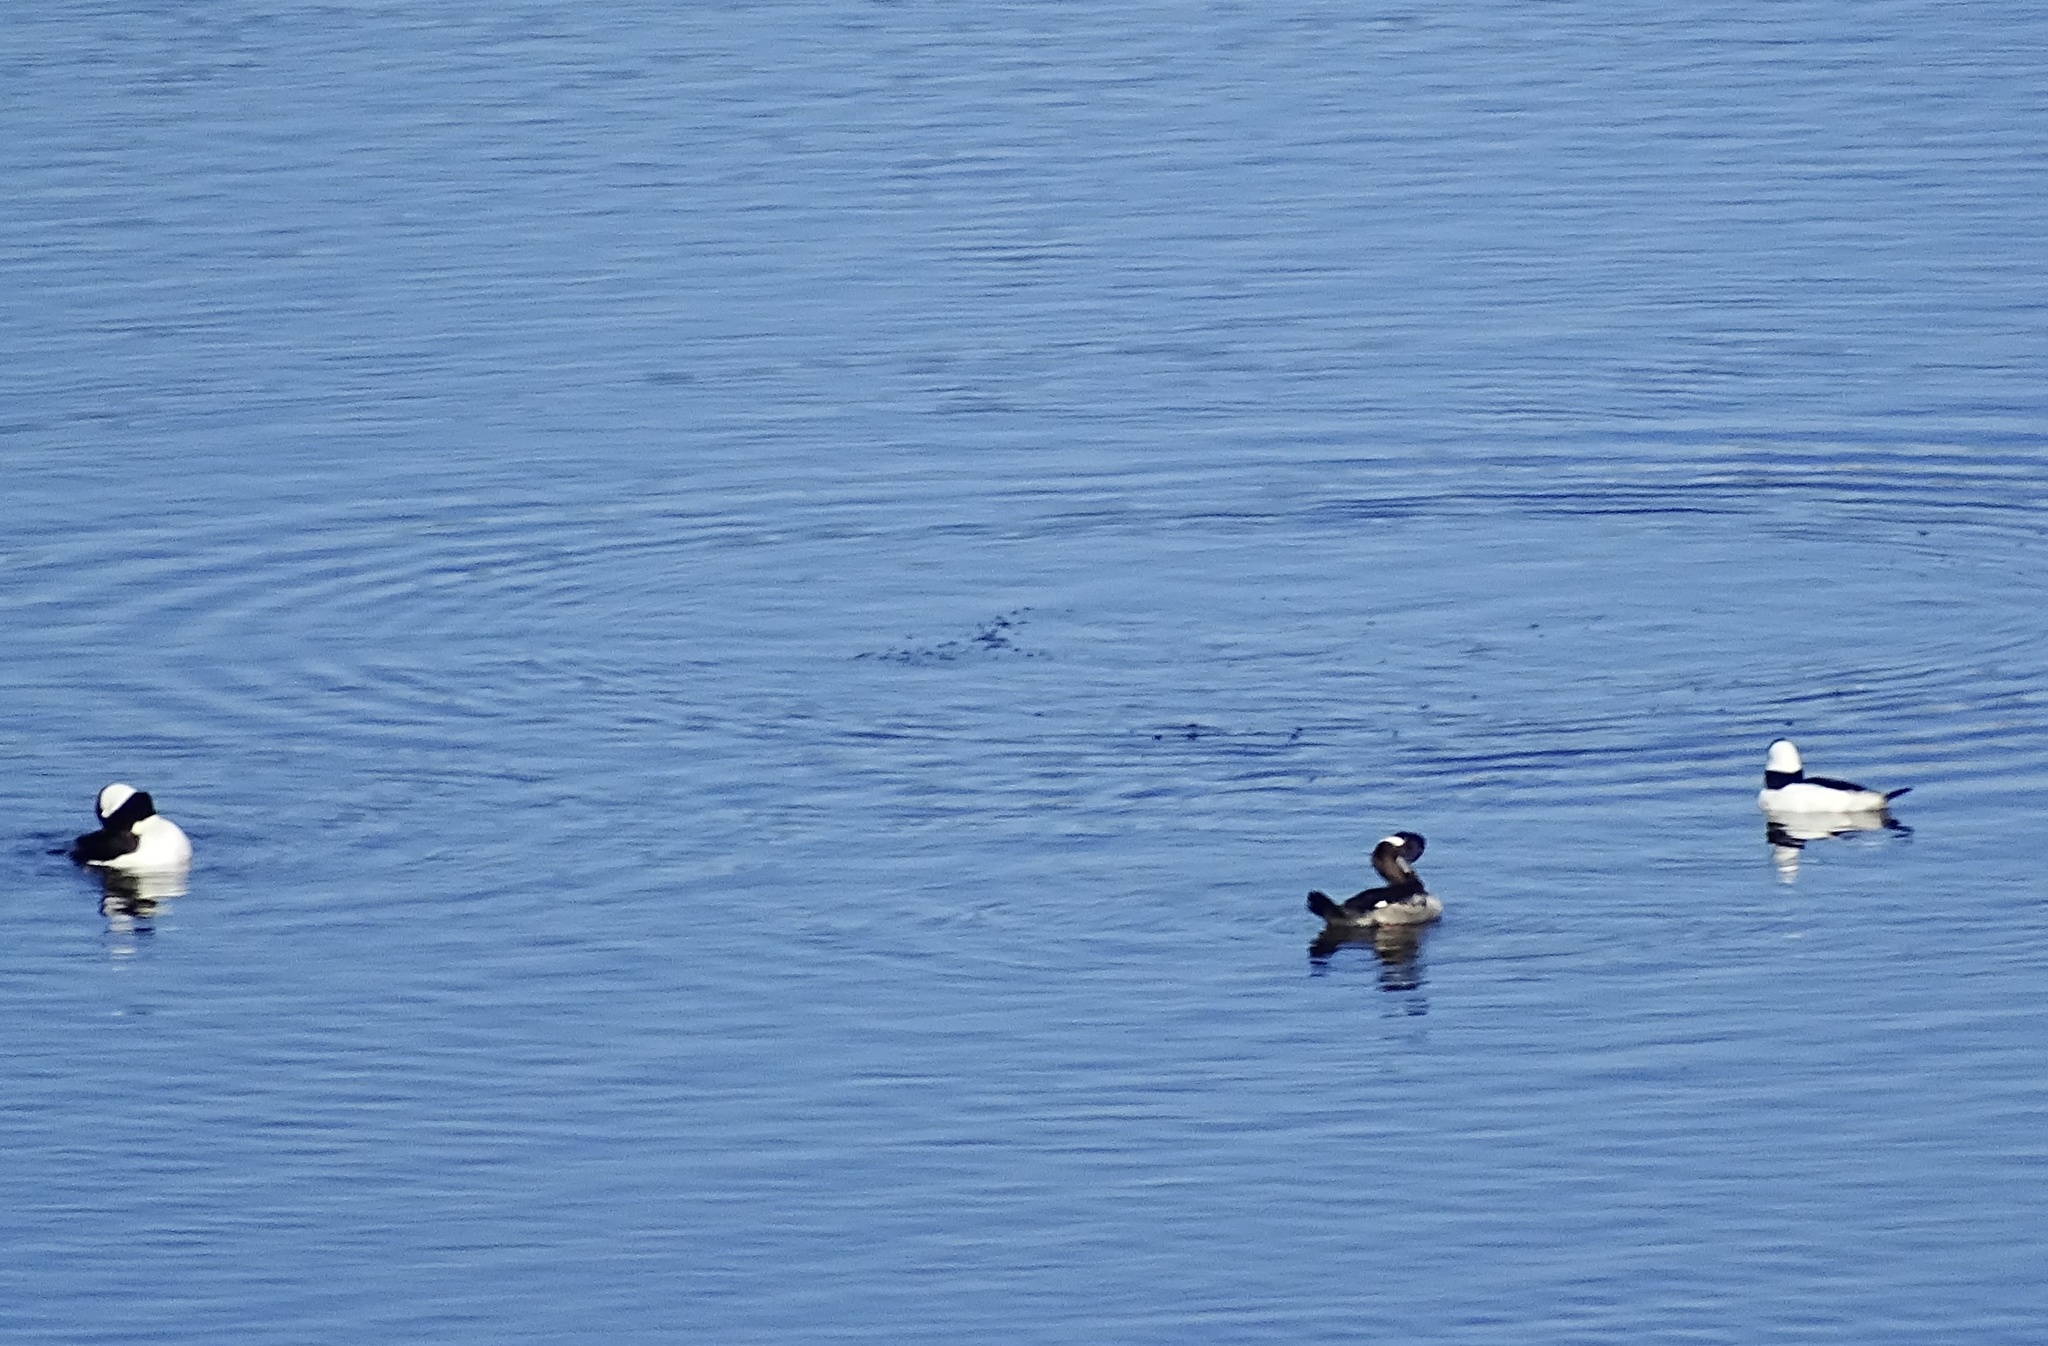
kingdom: Animalia
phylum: Chordata
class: Aves
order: Anseriformes
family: Anatidae
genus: Bucephala
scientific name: Bucephala albeola
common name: Bufflehead
